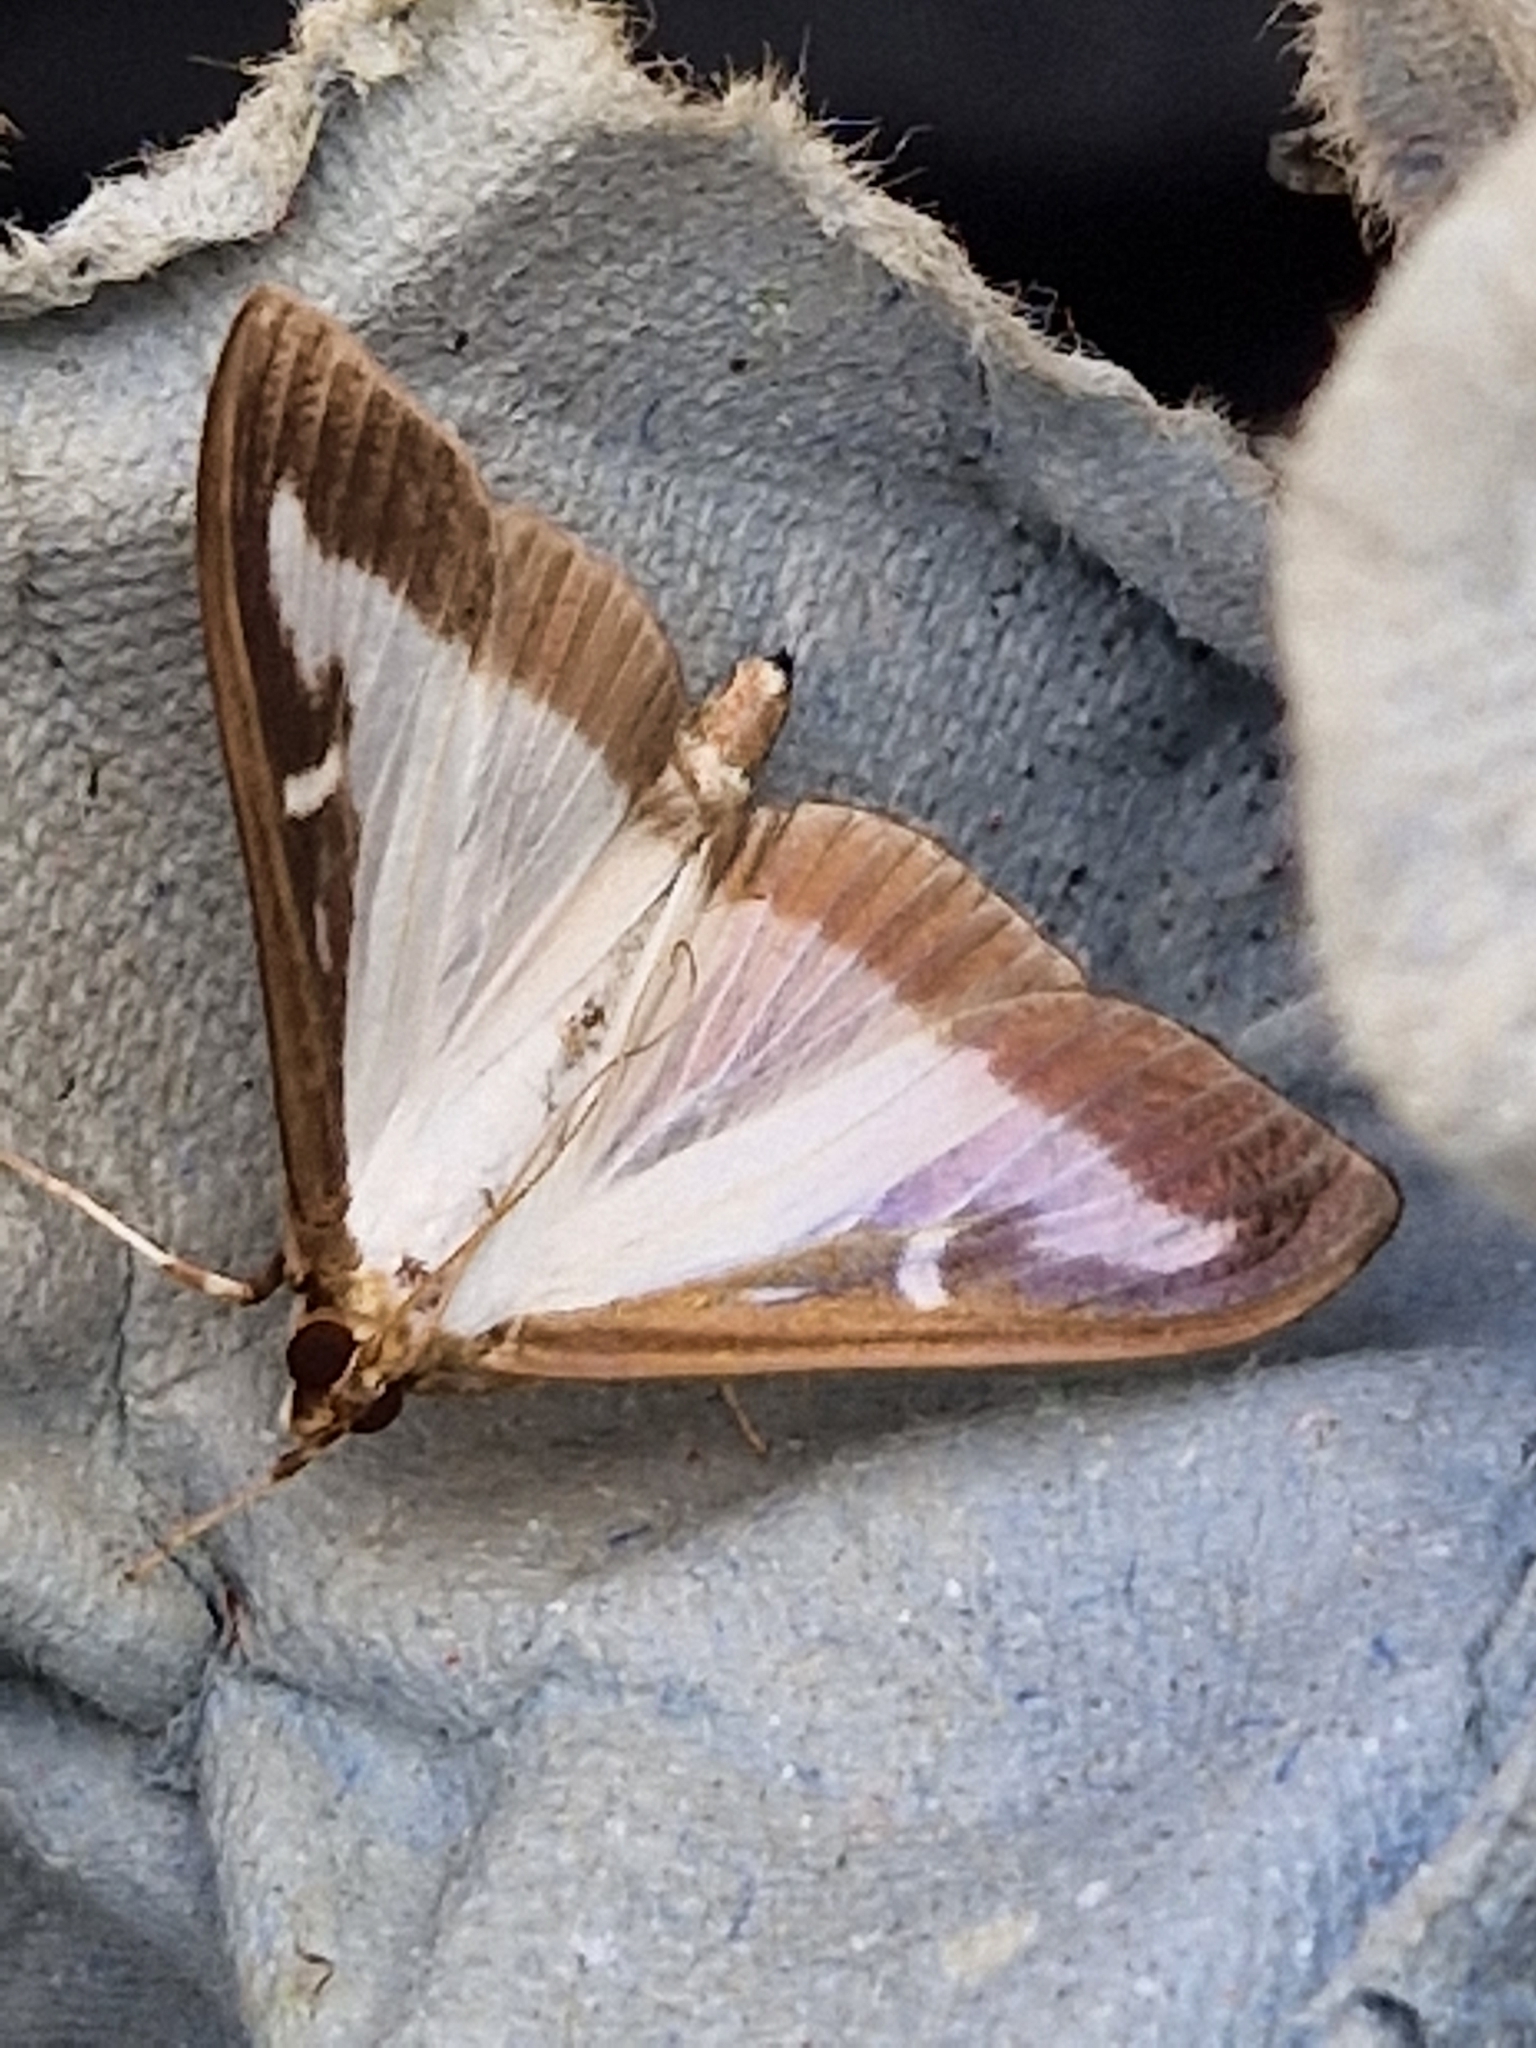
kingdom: Animalia
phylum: Arthropoda
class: Insecta
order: Lepidoptera
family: Crambidae
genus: Cydalima
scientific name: Cydalima perspectalis
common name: Box tree moth
